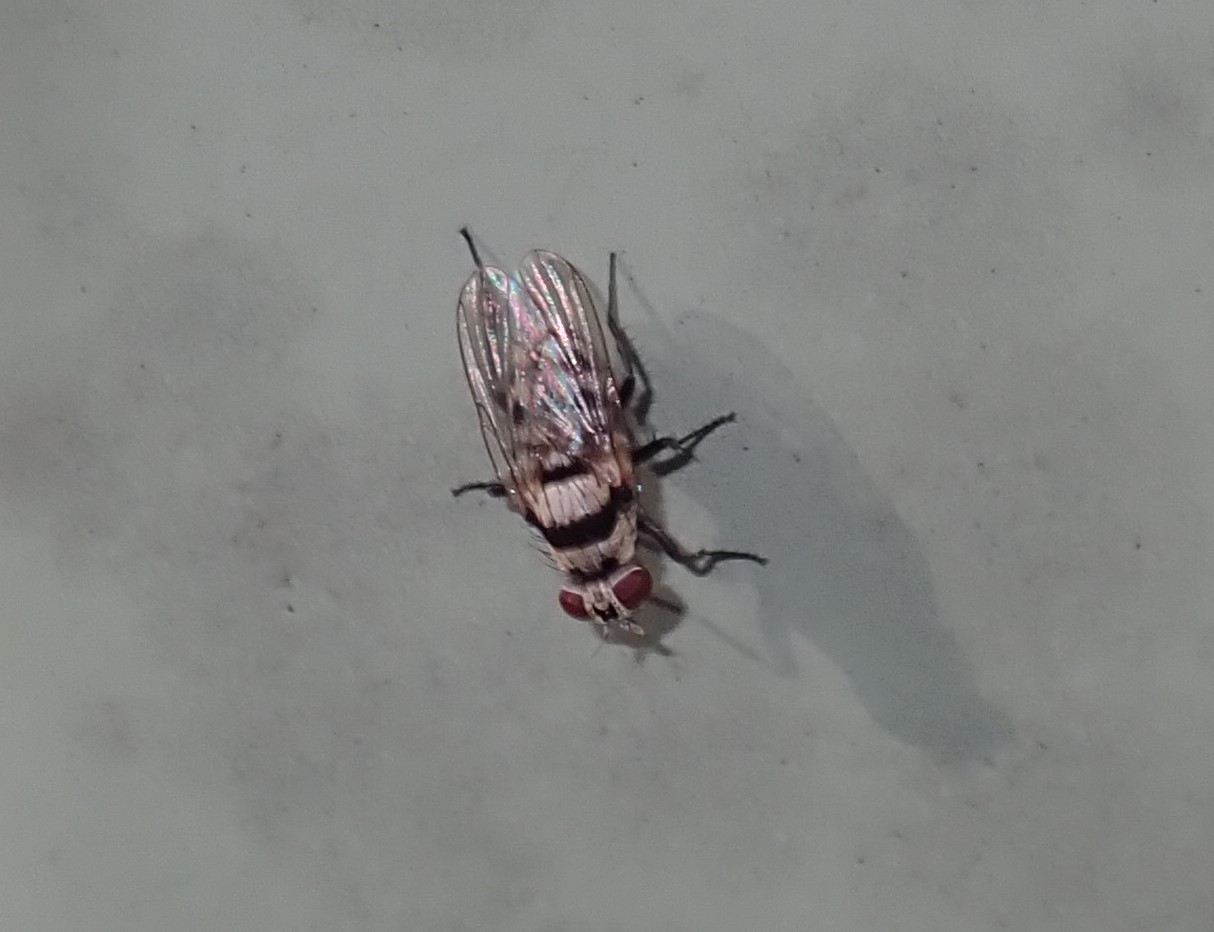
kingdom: Animalia
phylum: Arthropoda
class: Insecta
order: Diptera
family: Anthomyiidae
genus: Anthomyia
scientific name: Anthomyia vicarians
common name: Fly
